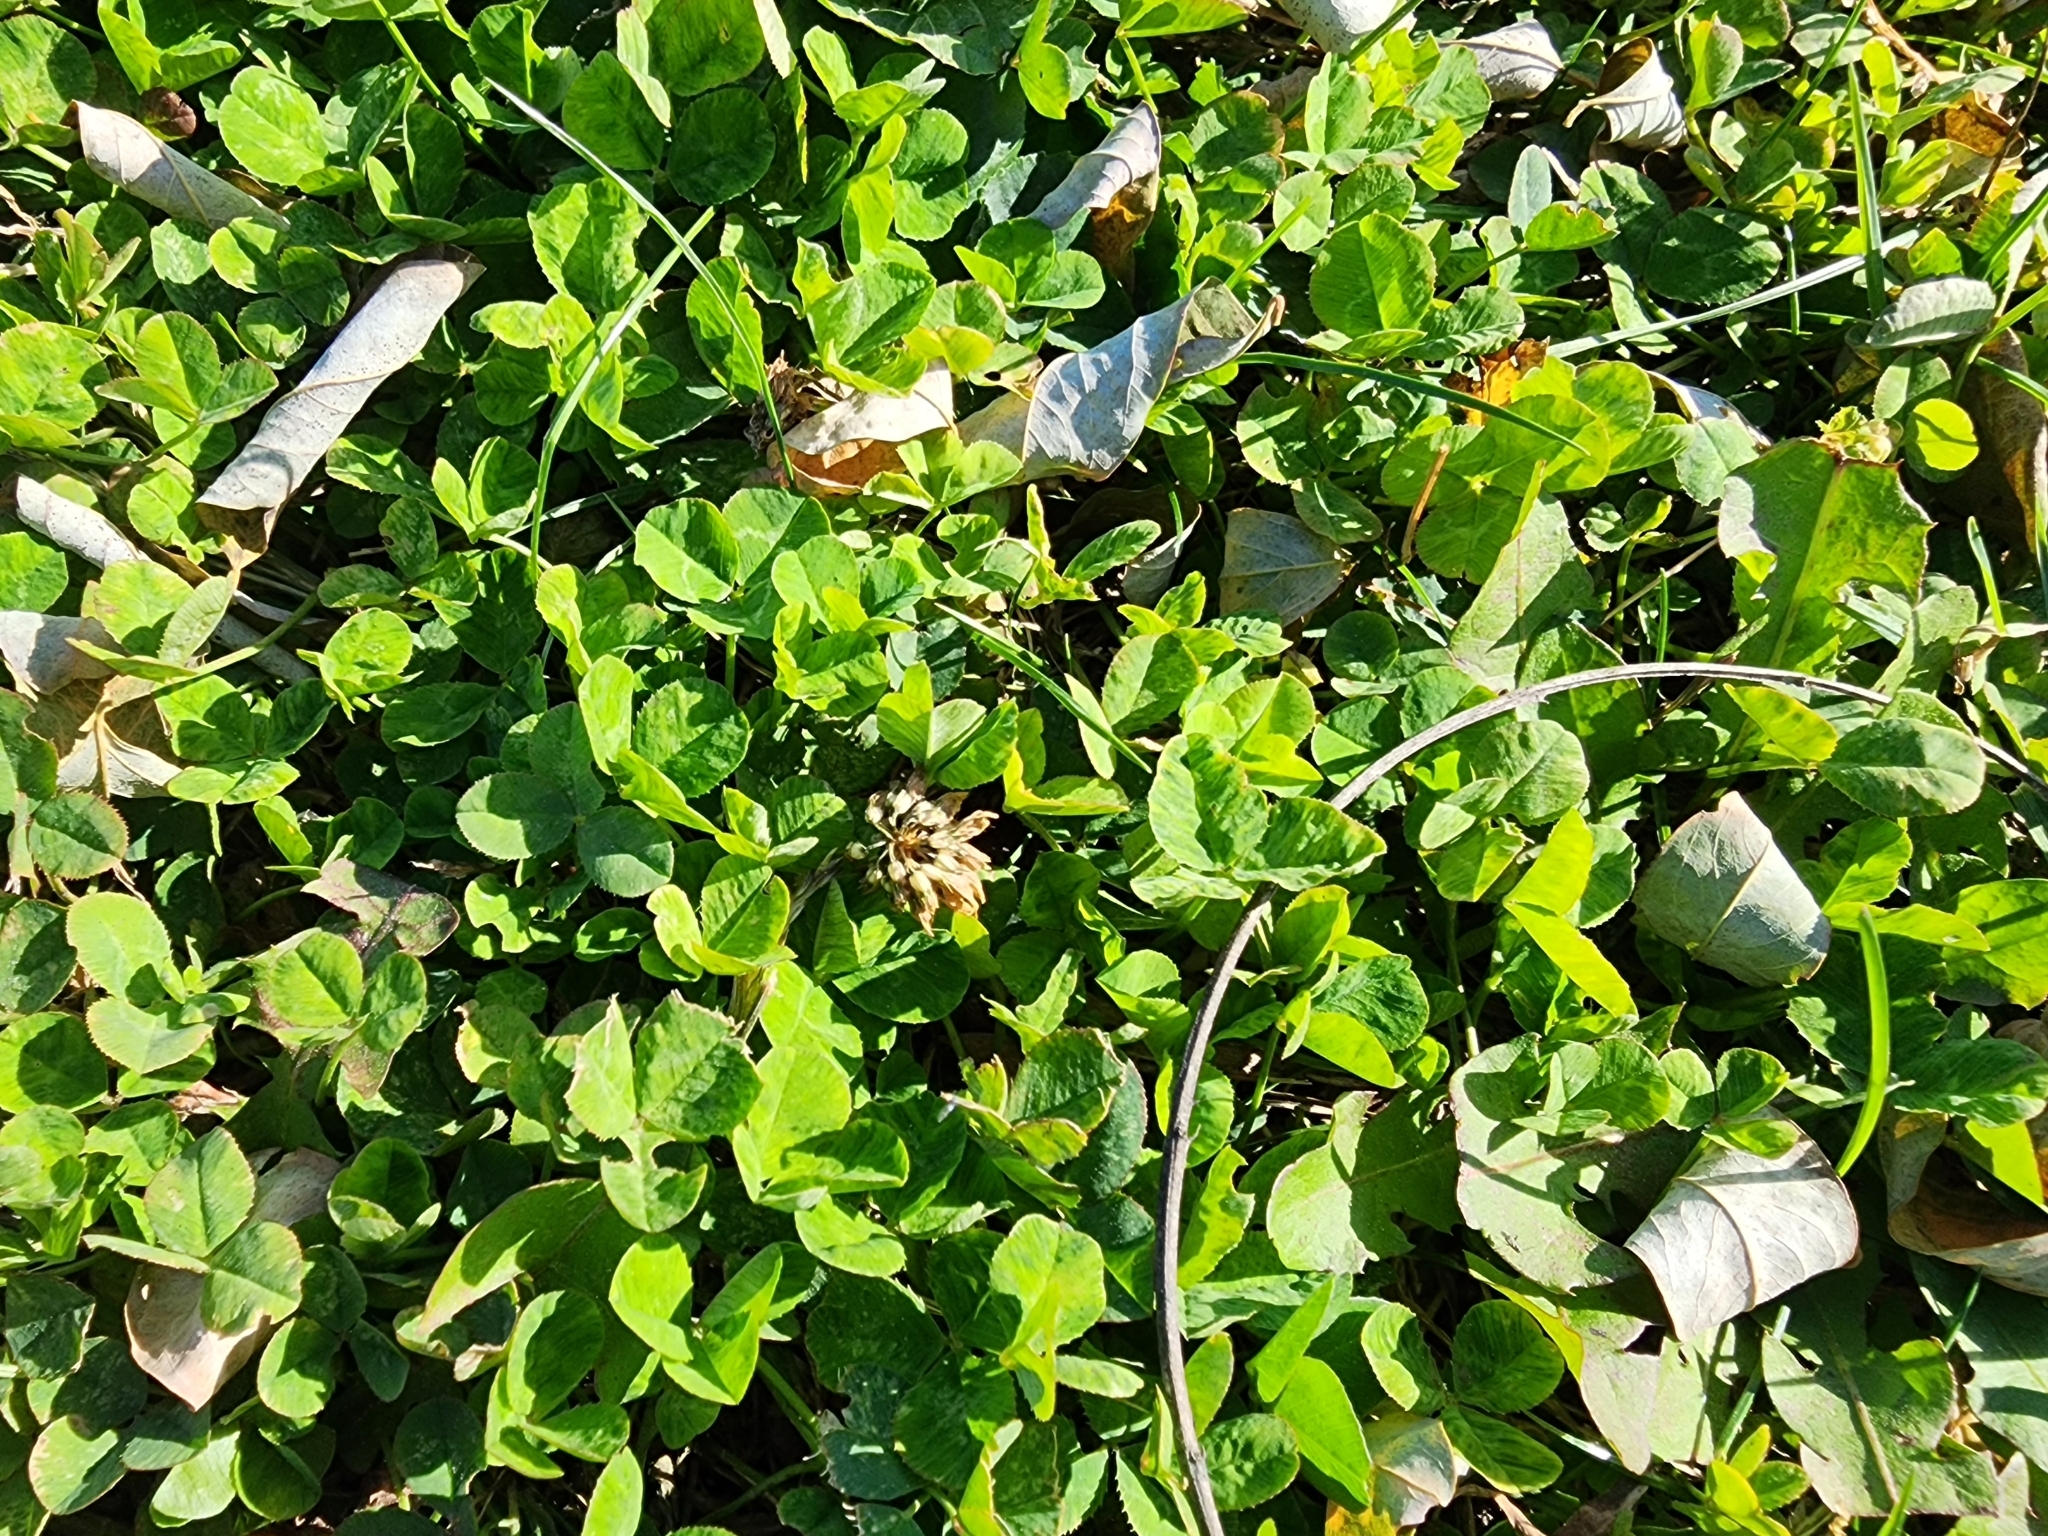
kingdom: Plantae
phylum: Tracheophyta
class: Magnoliopsida
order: Fabales
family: Fabaceae
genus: Trifolium
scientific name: Trifolium repens
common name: White clover
